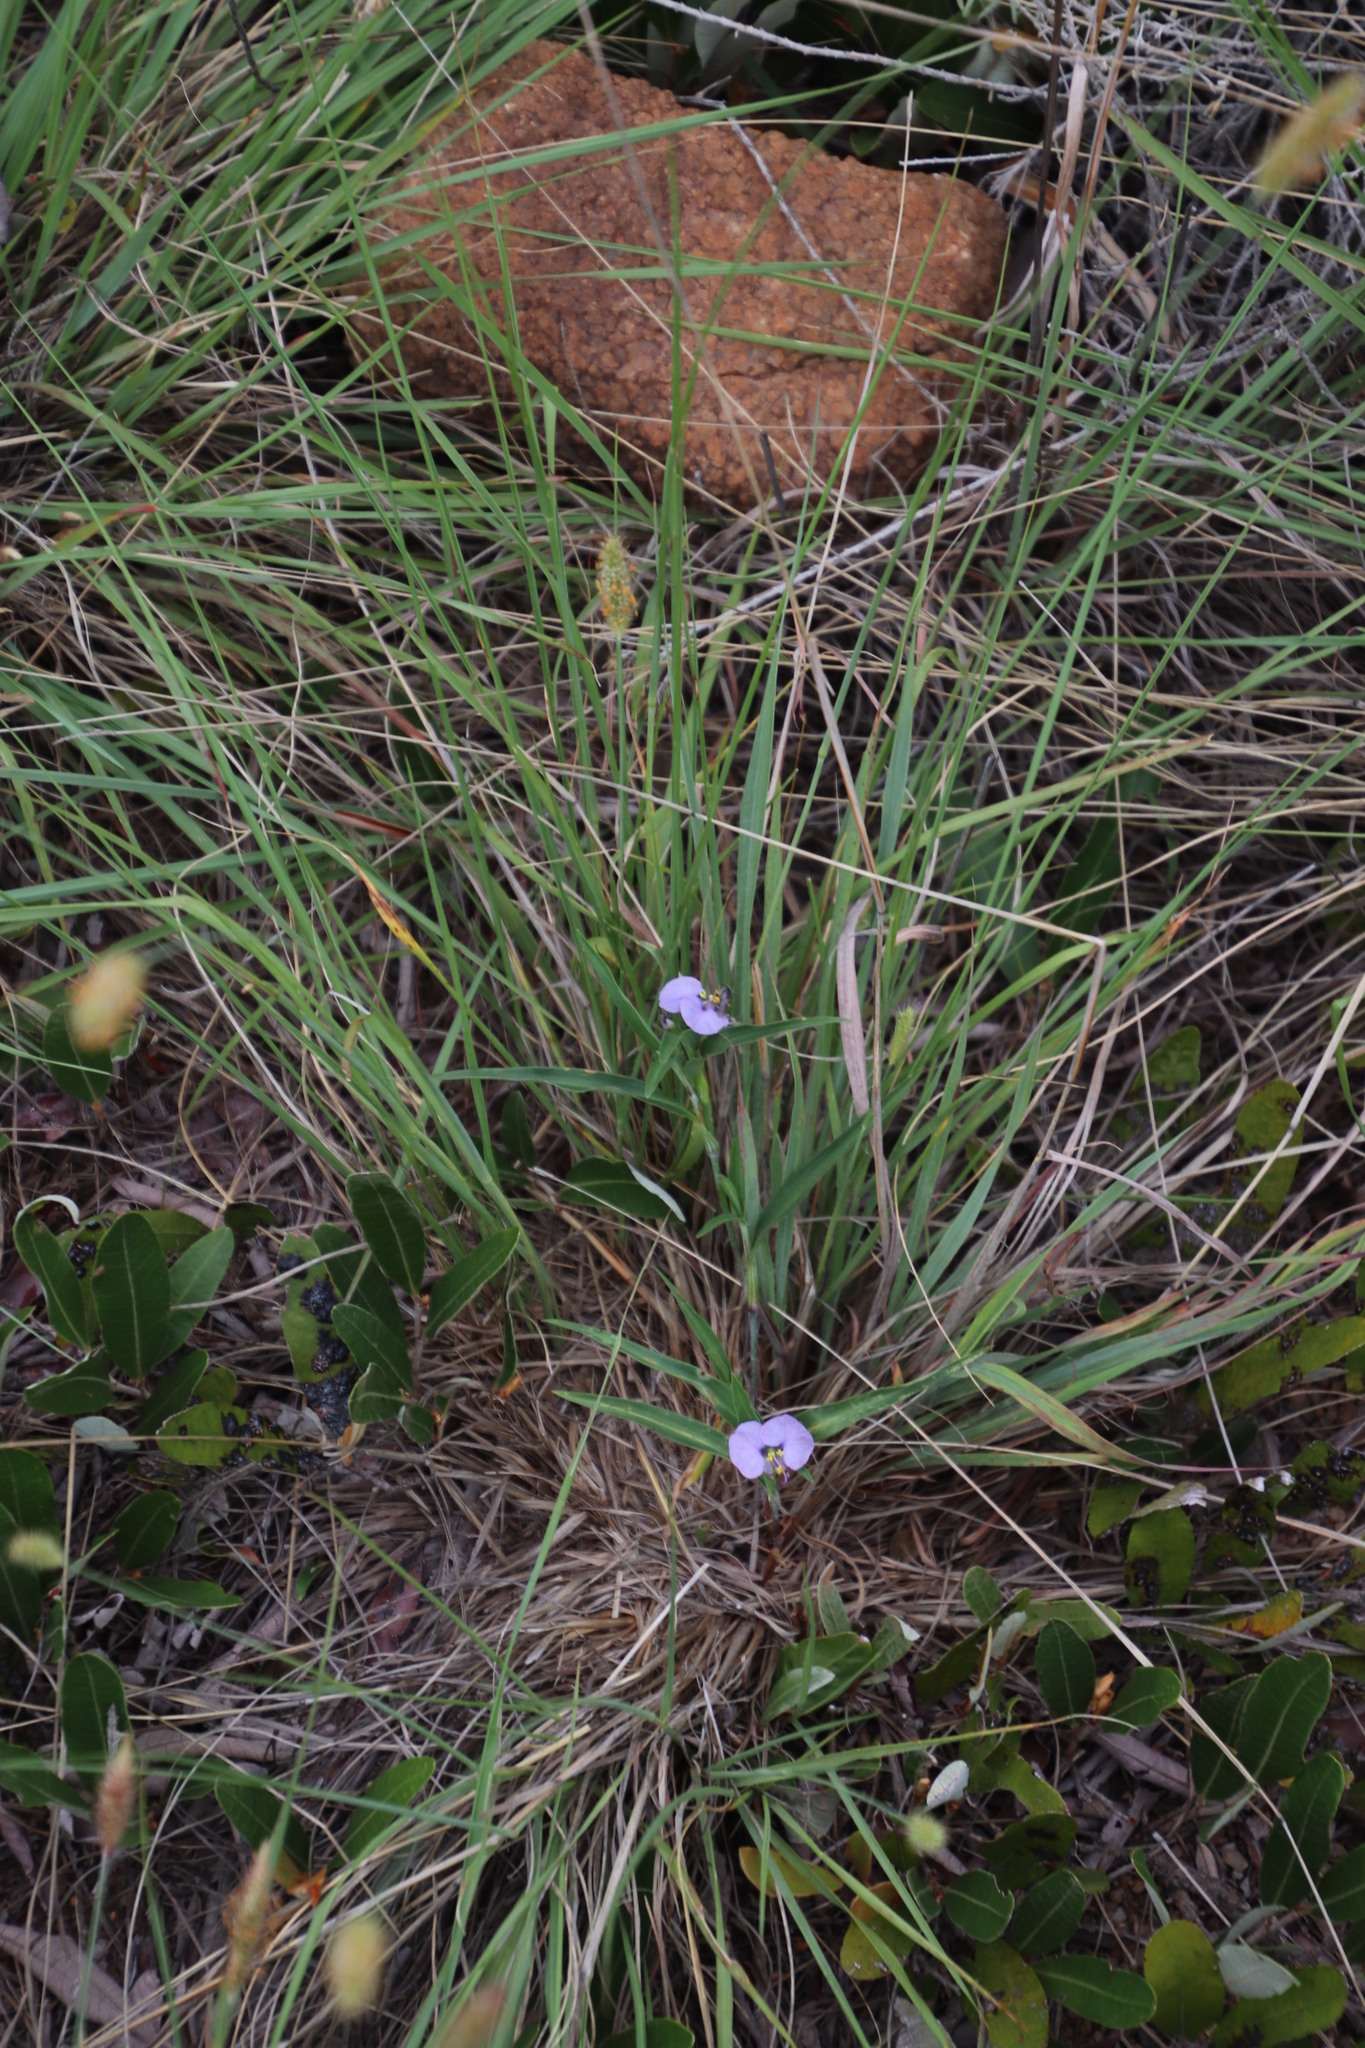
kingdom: Plantae
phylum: Tracheophyta
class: Liliopsida
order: Commelinales
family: Commelinaceae
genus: Commelina
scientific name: Commelina erecta
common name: Blousel blommetjie
